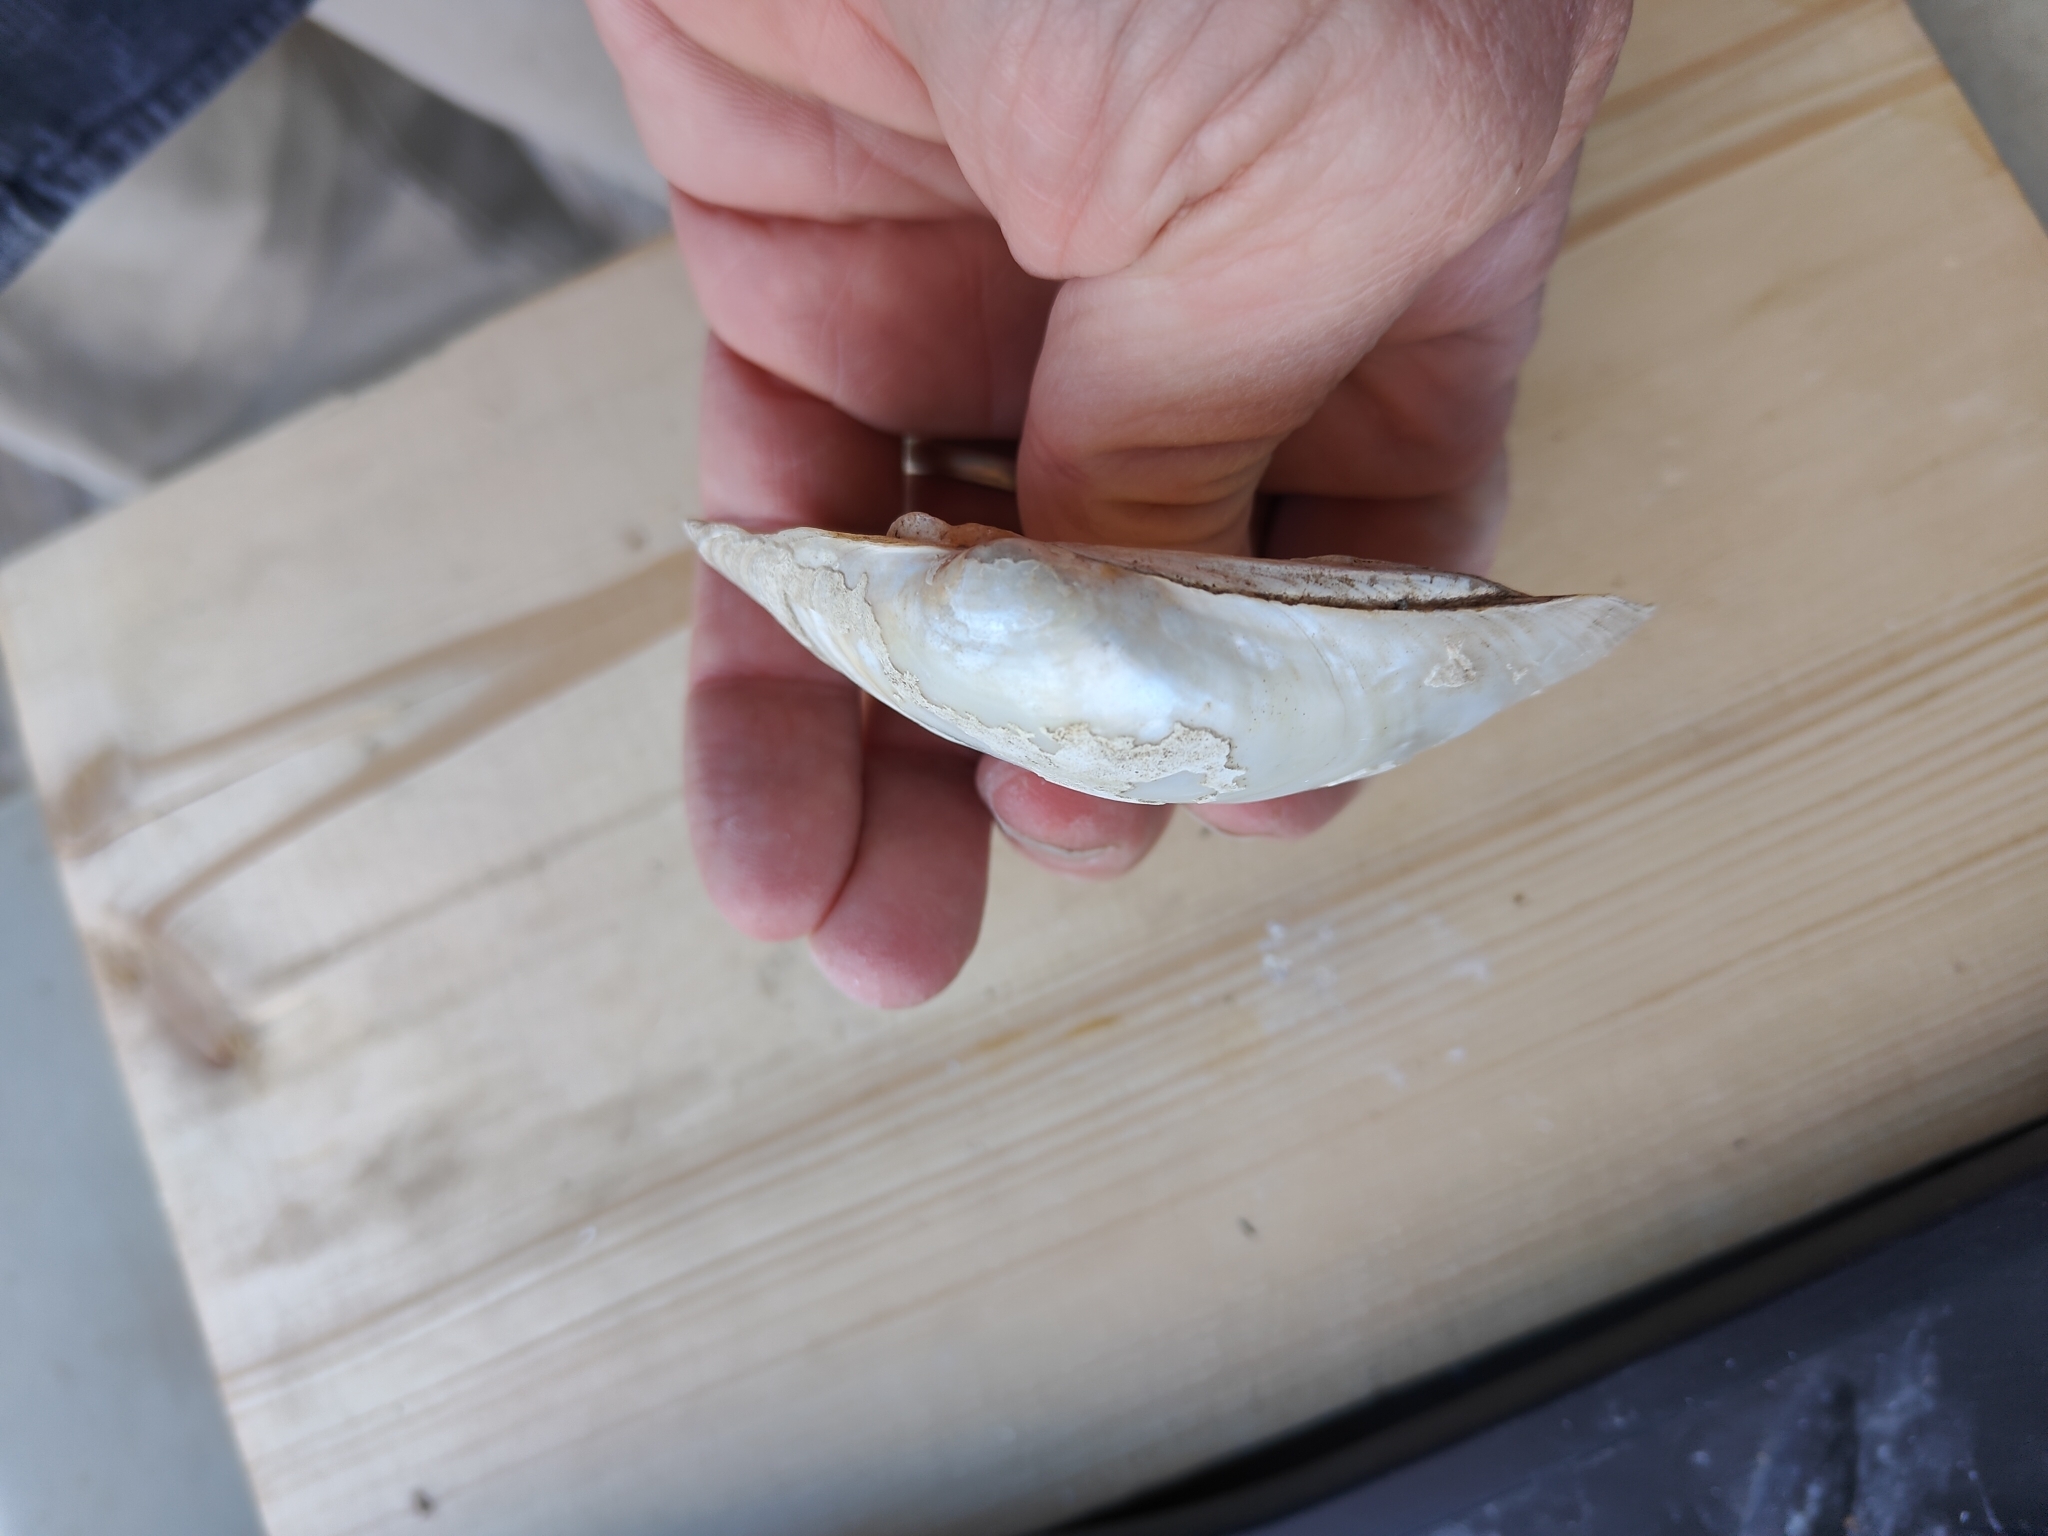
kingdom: Animalia
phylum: Mollusca
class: Bivalvia
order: Unionida
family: Unionidae
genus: Lampsilis
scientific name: Lampsilis cardium
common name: Plain pocketbook
